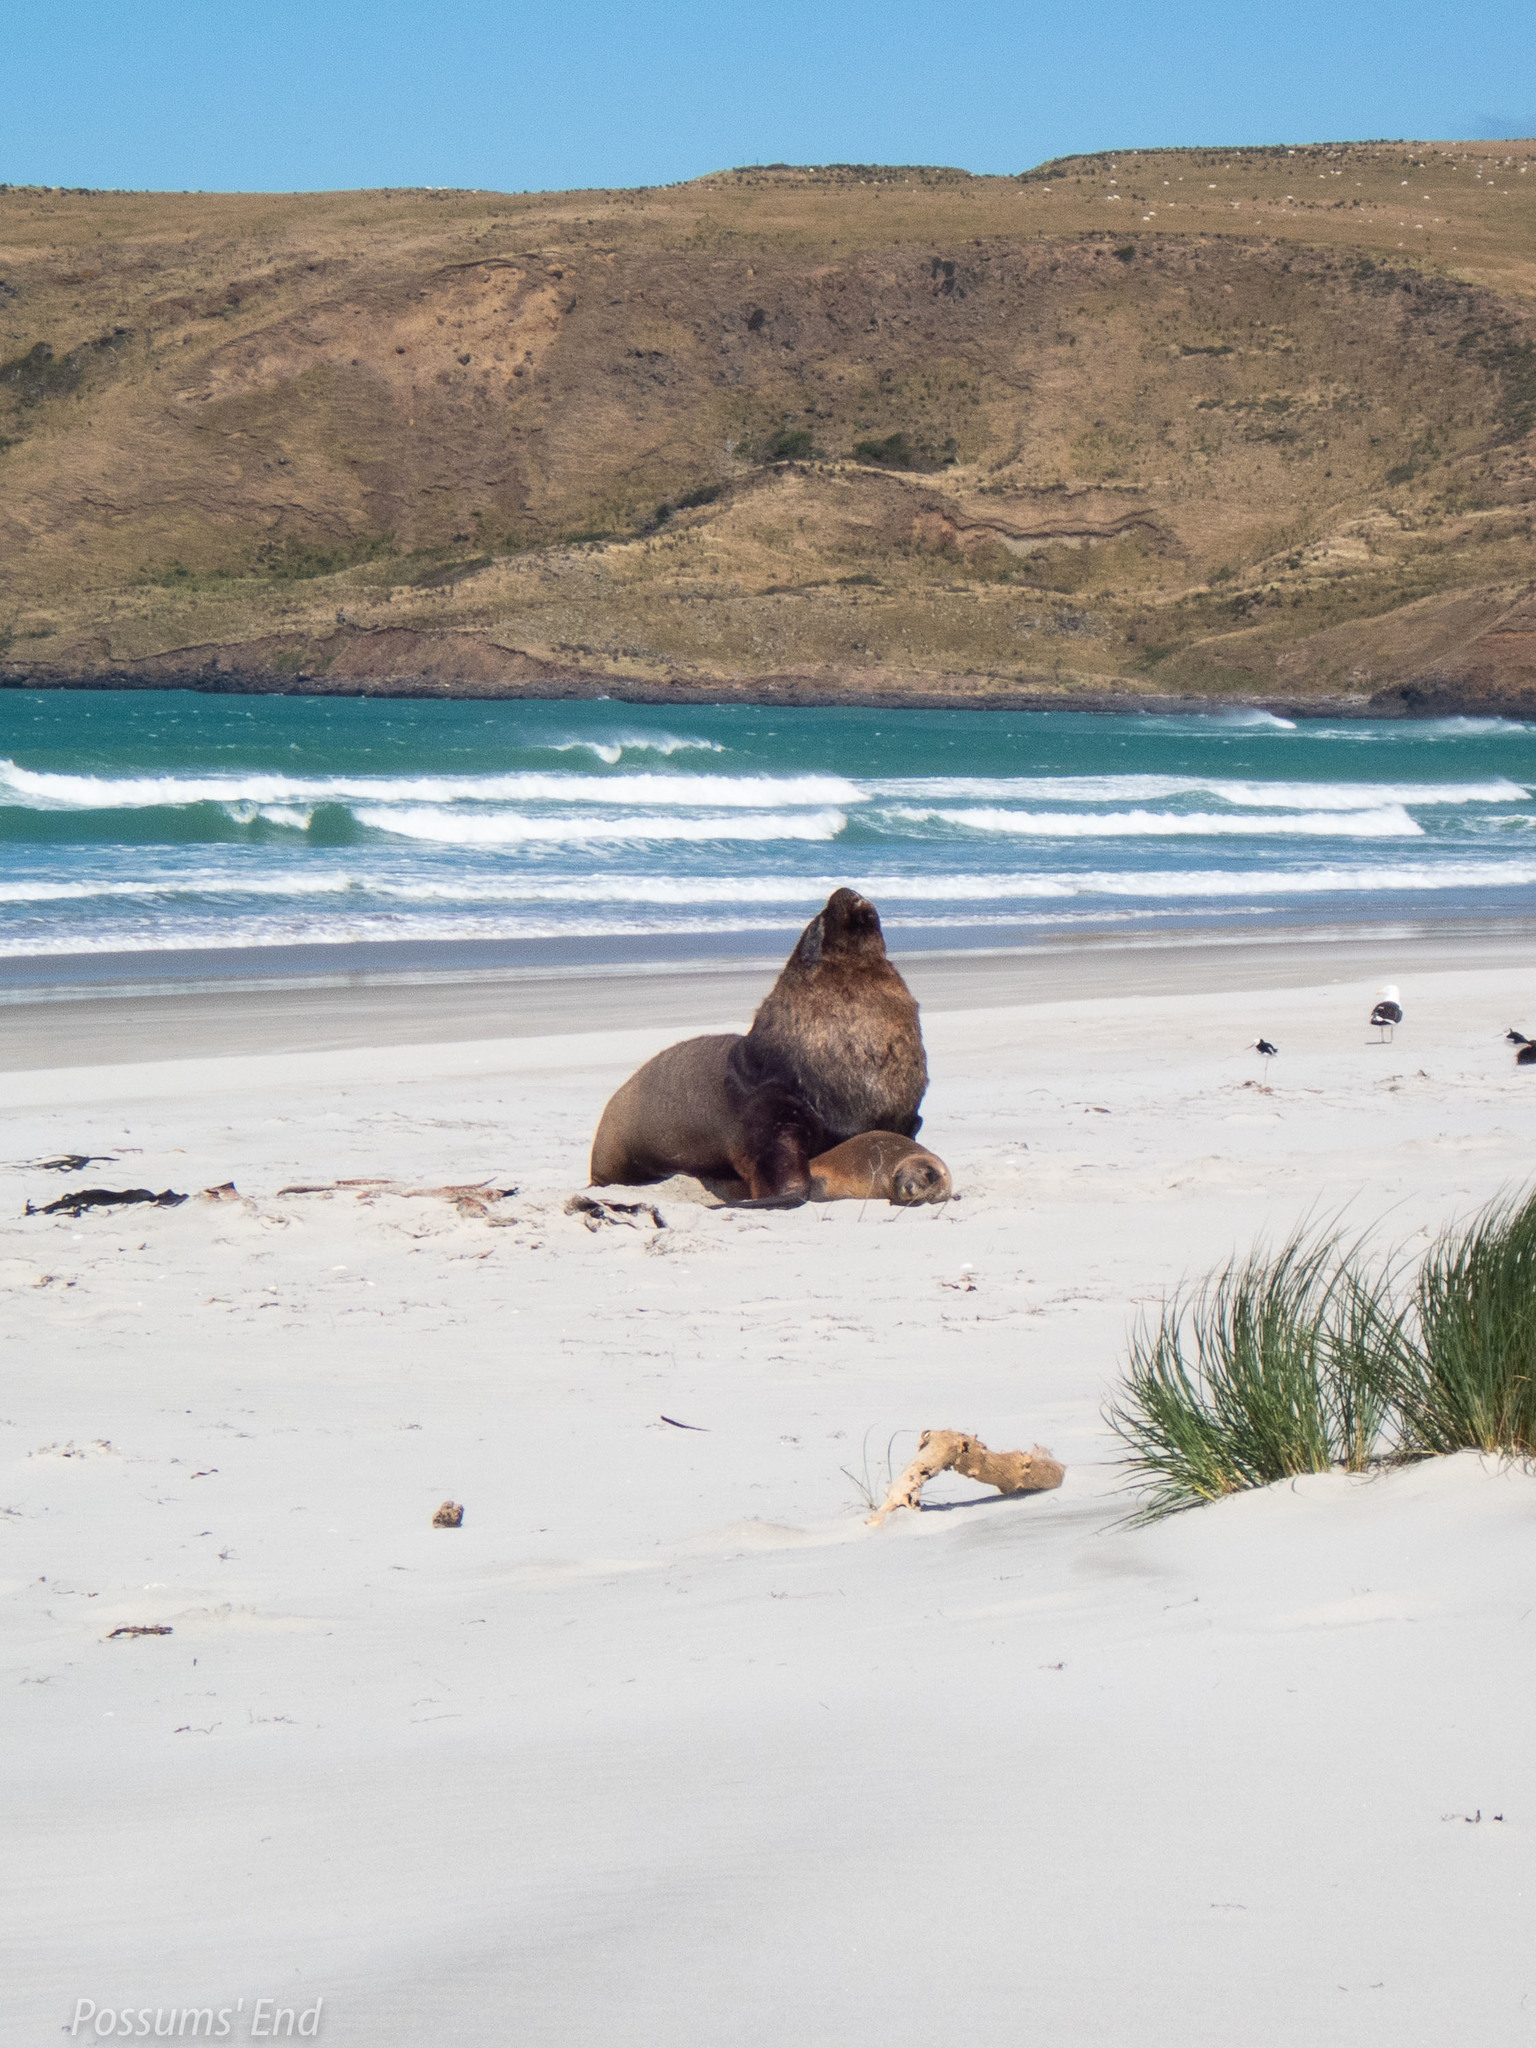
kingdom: Animalia
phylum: Chordata
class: Mammalia
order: Carnivora
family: Otariidae
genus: Phocarctos
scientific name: Phocarctos hookeri
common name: New zealand sea lion
